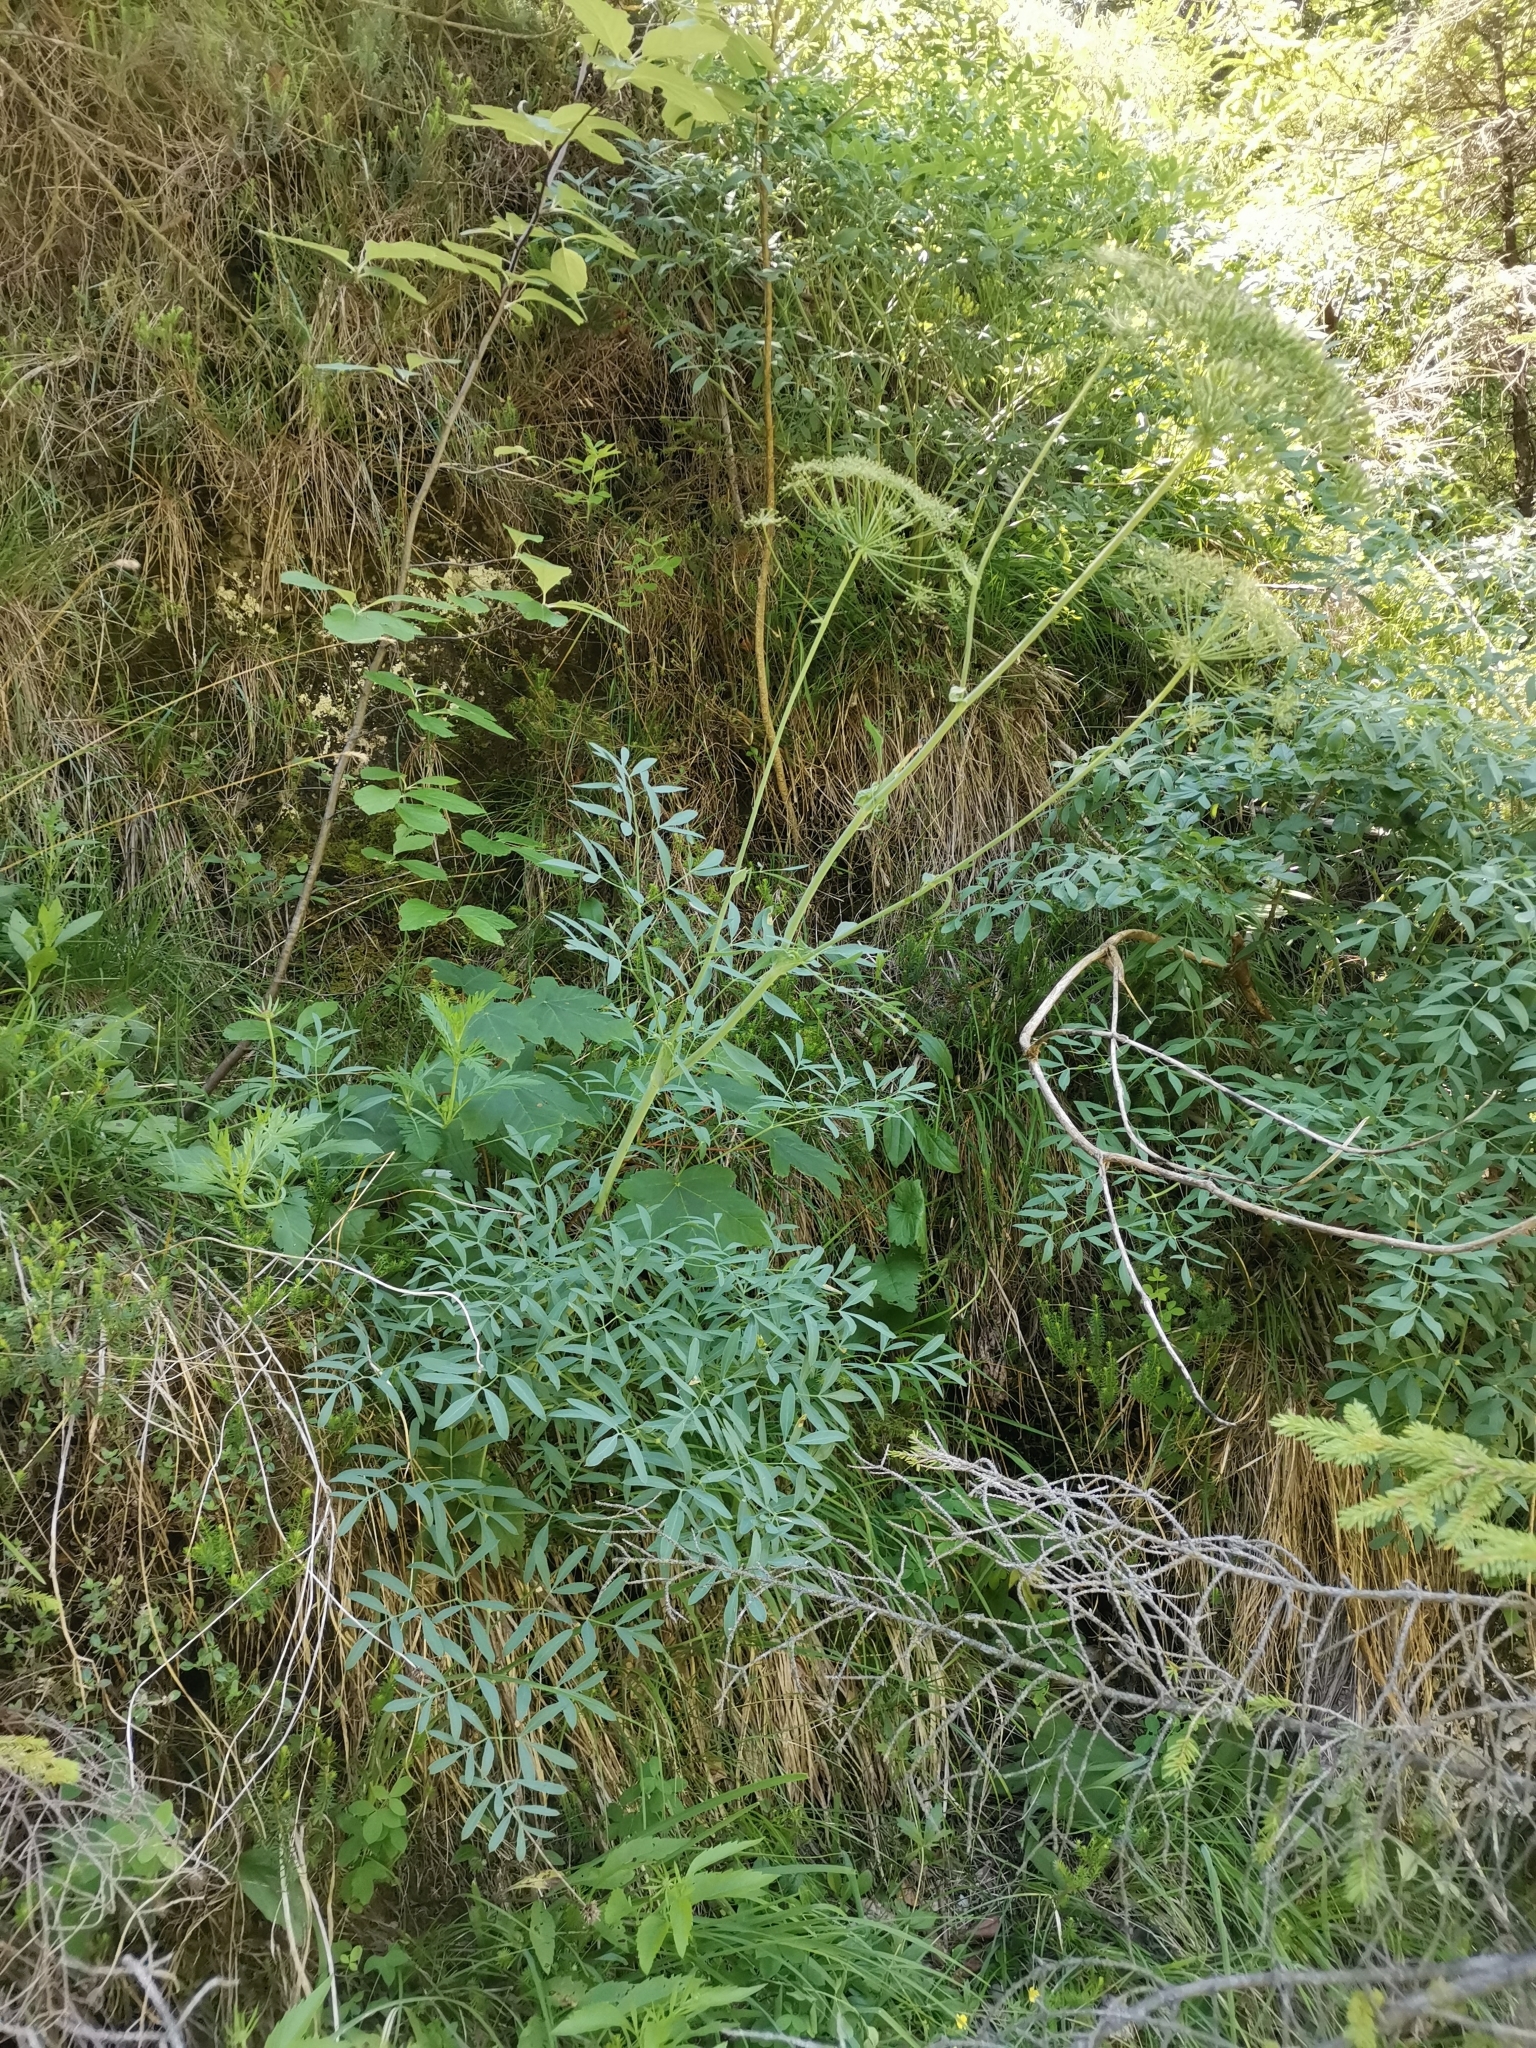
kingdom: Plantae
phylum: Tracheophyta
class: Magnoliopsida
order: Apiales
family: Apiaceae
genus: Siler
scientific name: Siler montanum
